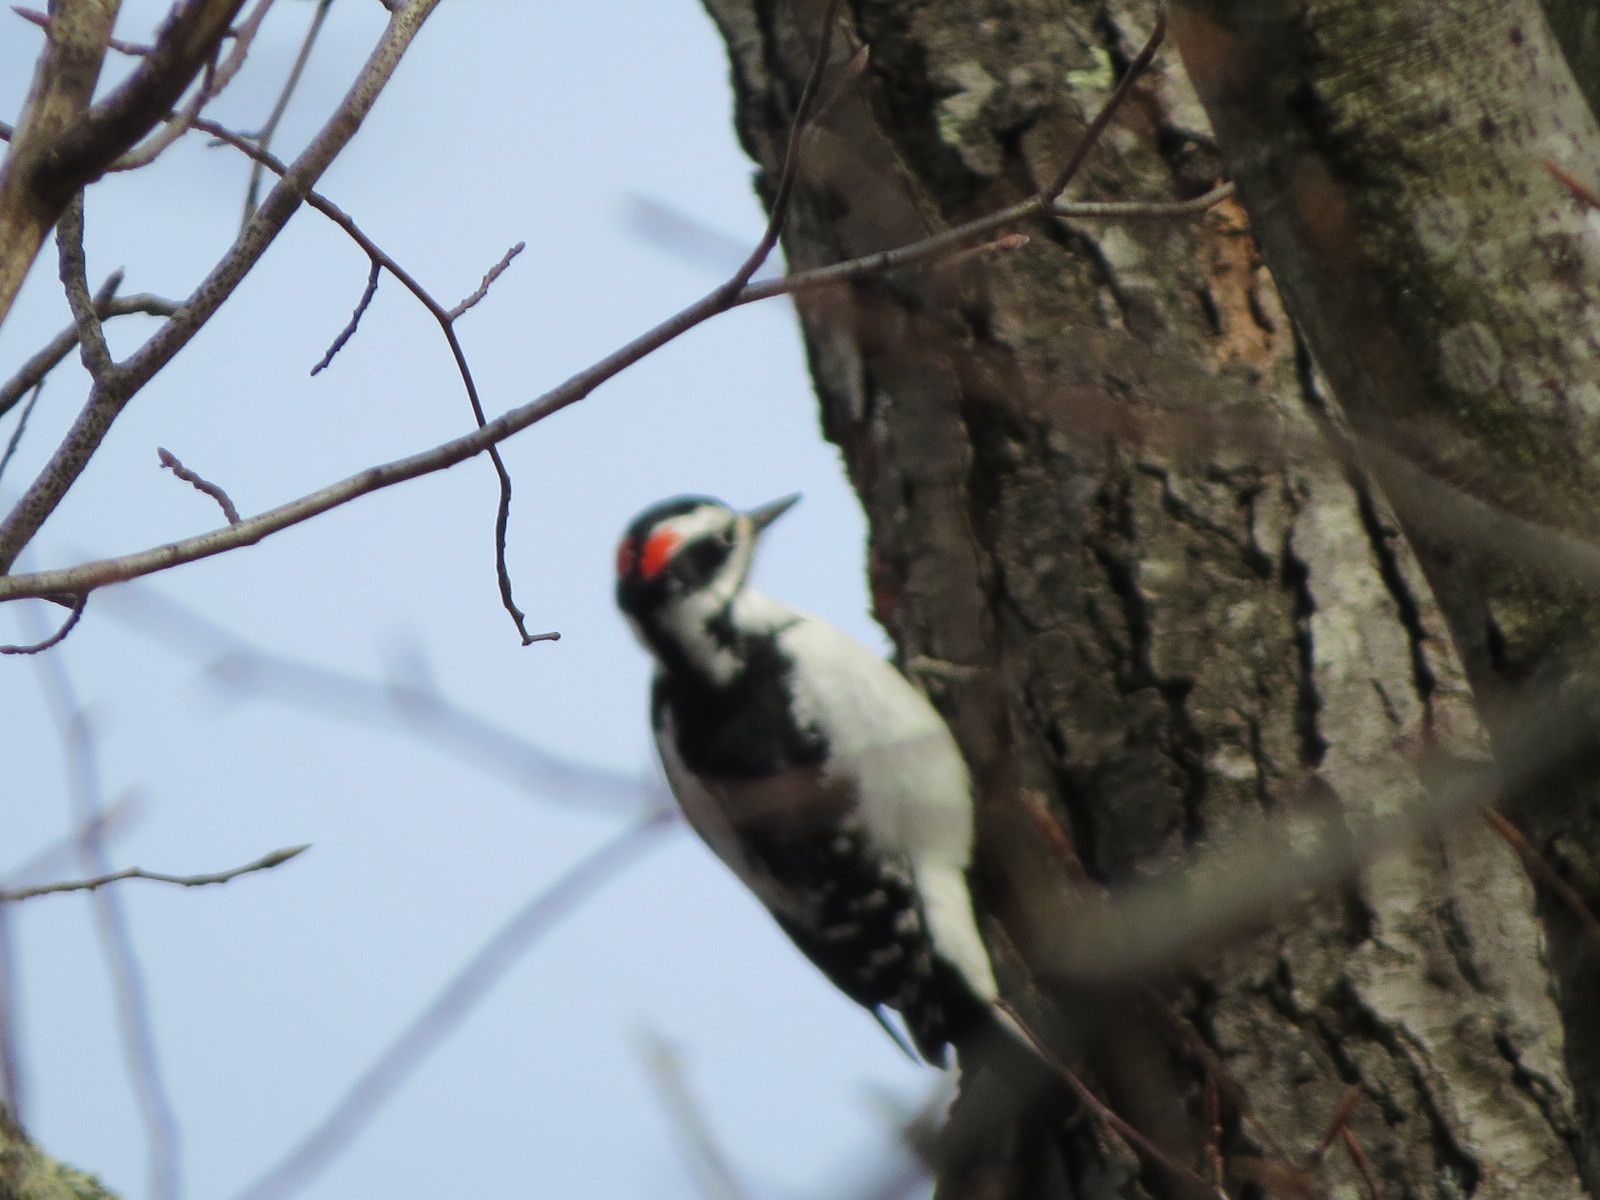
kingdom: Animalia
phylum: Chordata
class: Aves
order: Piciformes
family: Picidae
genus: Leuconotopicus
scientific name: Leuconotopicus villosus
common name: Hairy woodpecker
